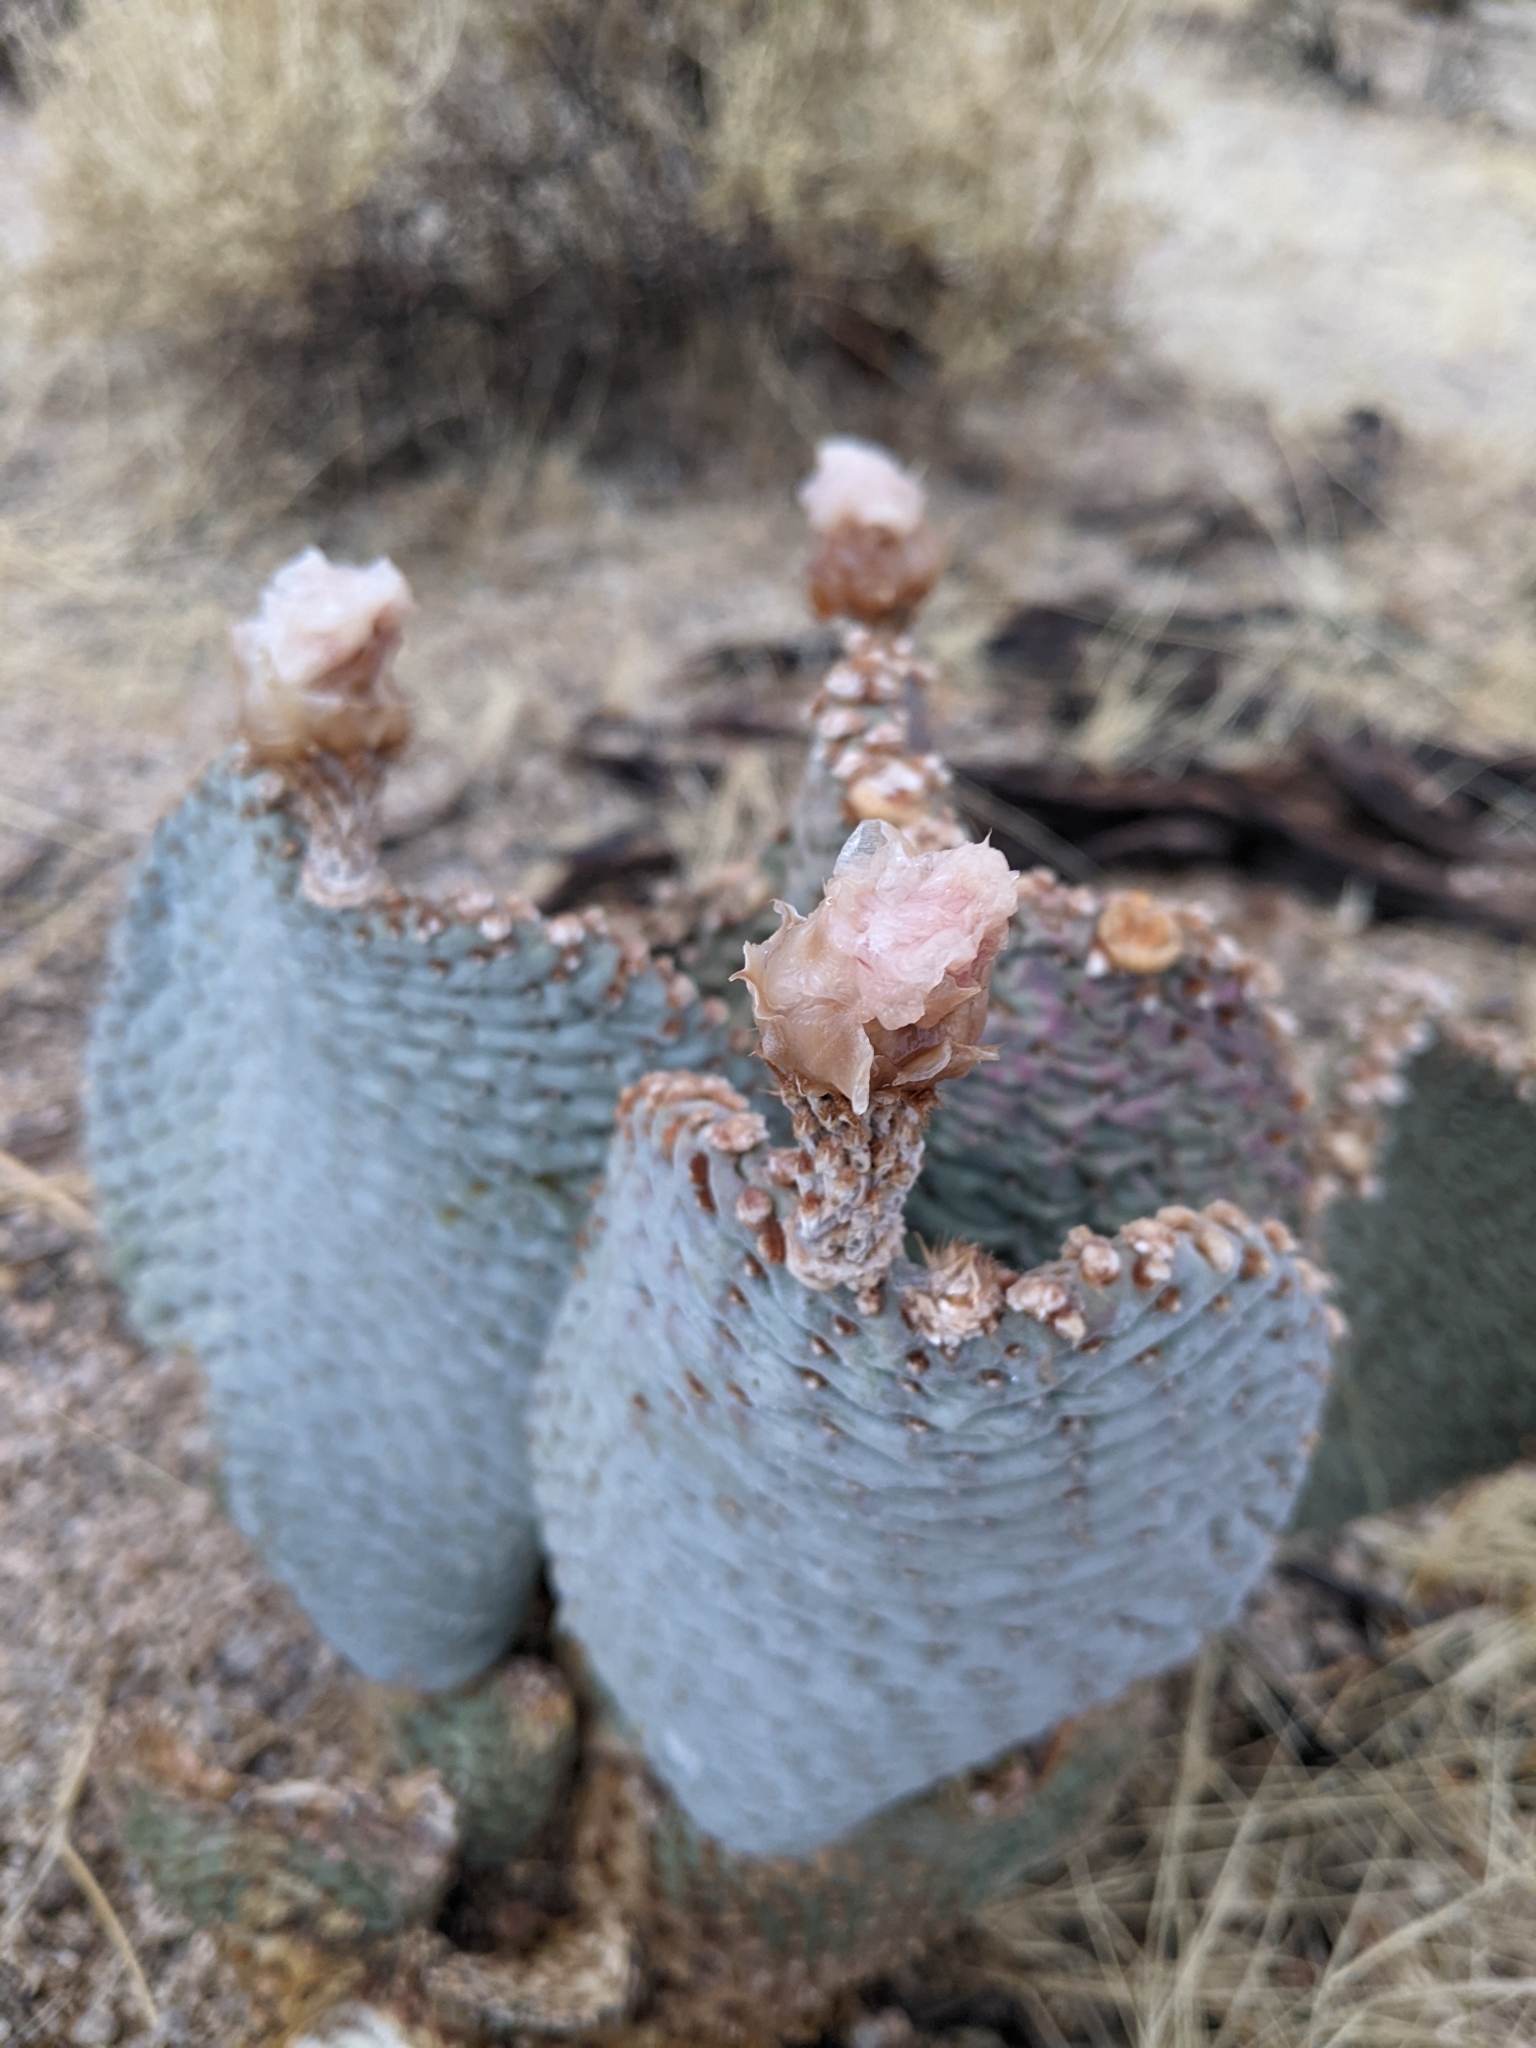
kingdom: Plantae
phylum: Tracheophyta
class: Magnoliopsida
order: Caryophyllales
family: Cactaceae
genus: Opuntia
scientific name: Opuntia basilaris
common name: Beavertail prickly-pear
